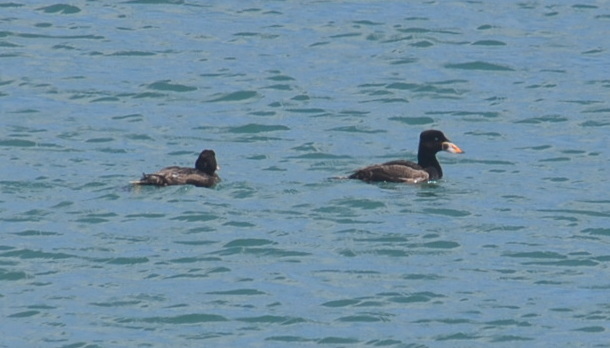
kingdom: Animalia
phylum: Chordata
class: Aves
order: Anseriformes
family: Anatidae
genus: Melanitta
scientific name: Melanitta perspicillata
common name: Surf scoter
